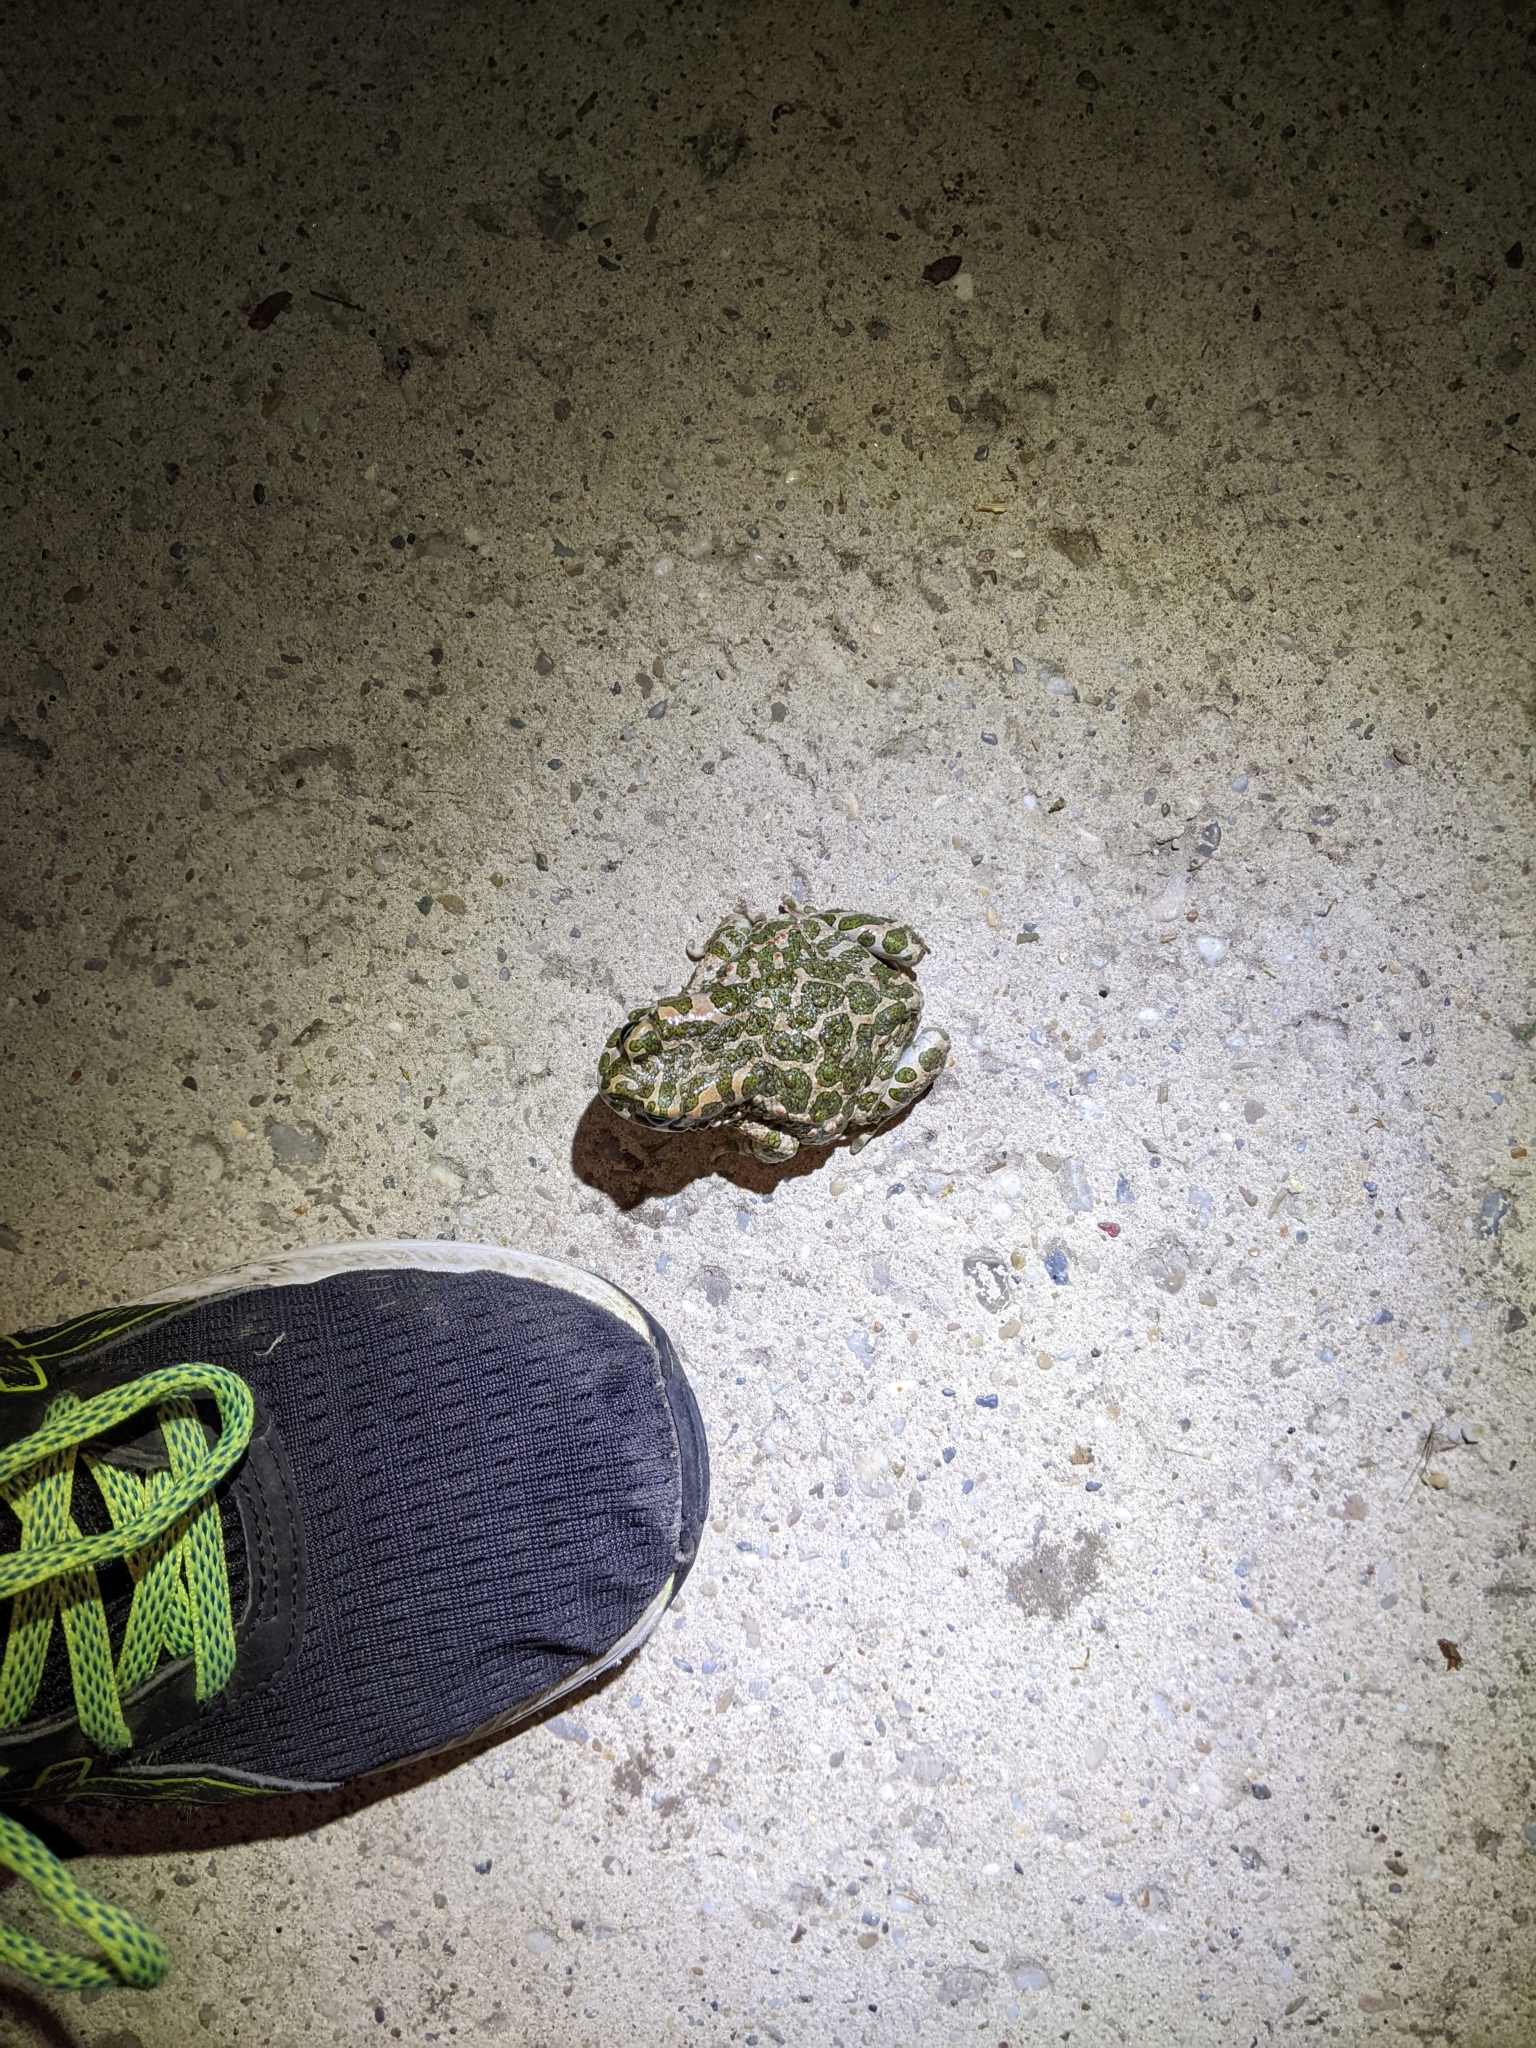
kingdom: Animalia
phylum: Chordata
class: Amphibia
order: Anura
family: Bufonidae
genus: Bufotes
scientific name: Bufotes viridis
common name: European green toad
